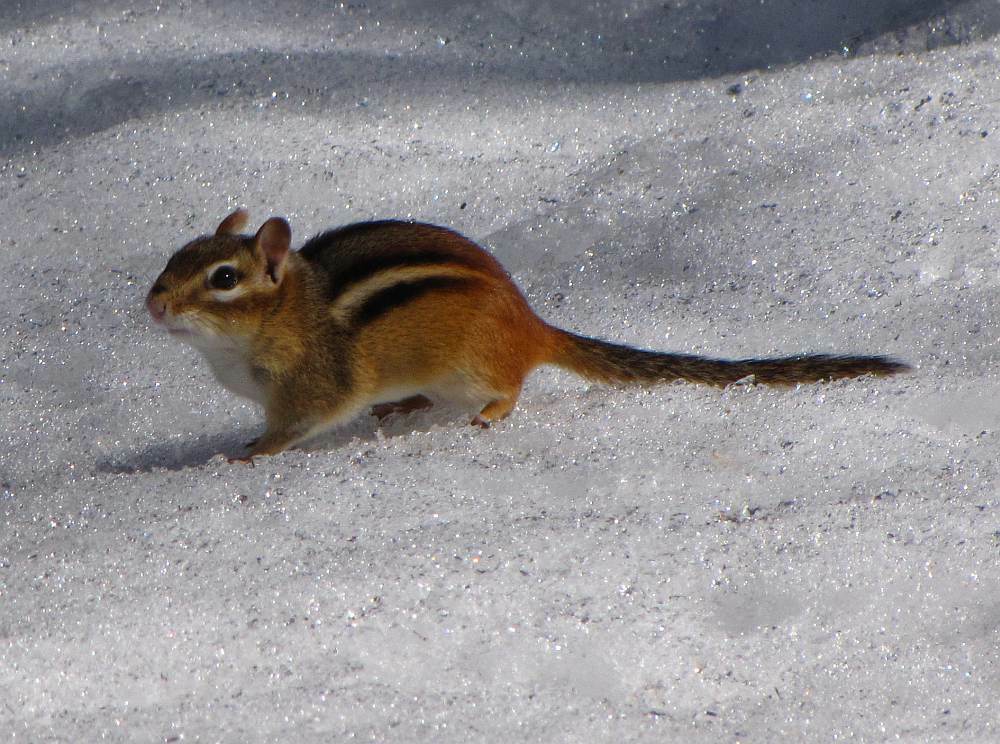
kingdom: Animalia
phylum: Chordata
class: Mammalia
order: Rodentia
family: Sciuridae
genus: Tamias
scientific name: Tamias striatus
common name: Eastern chipmunk
